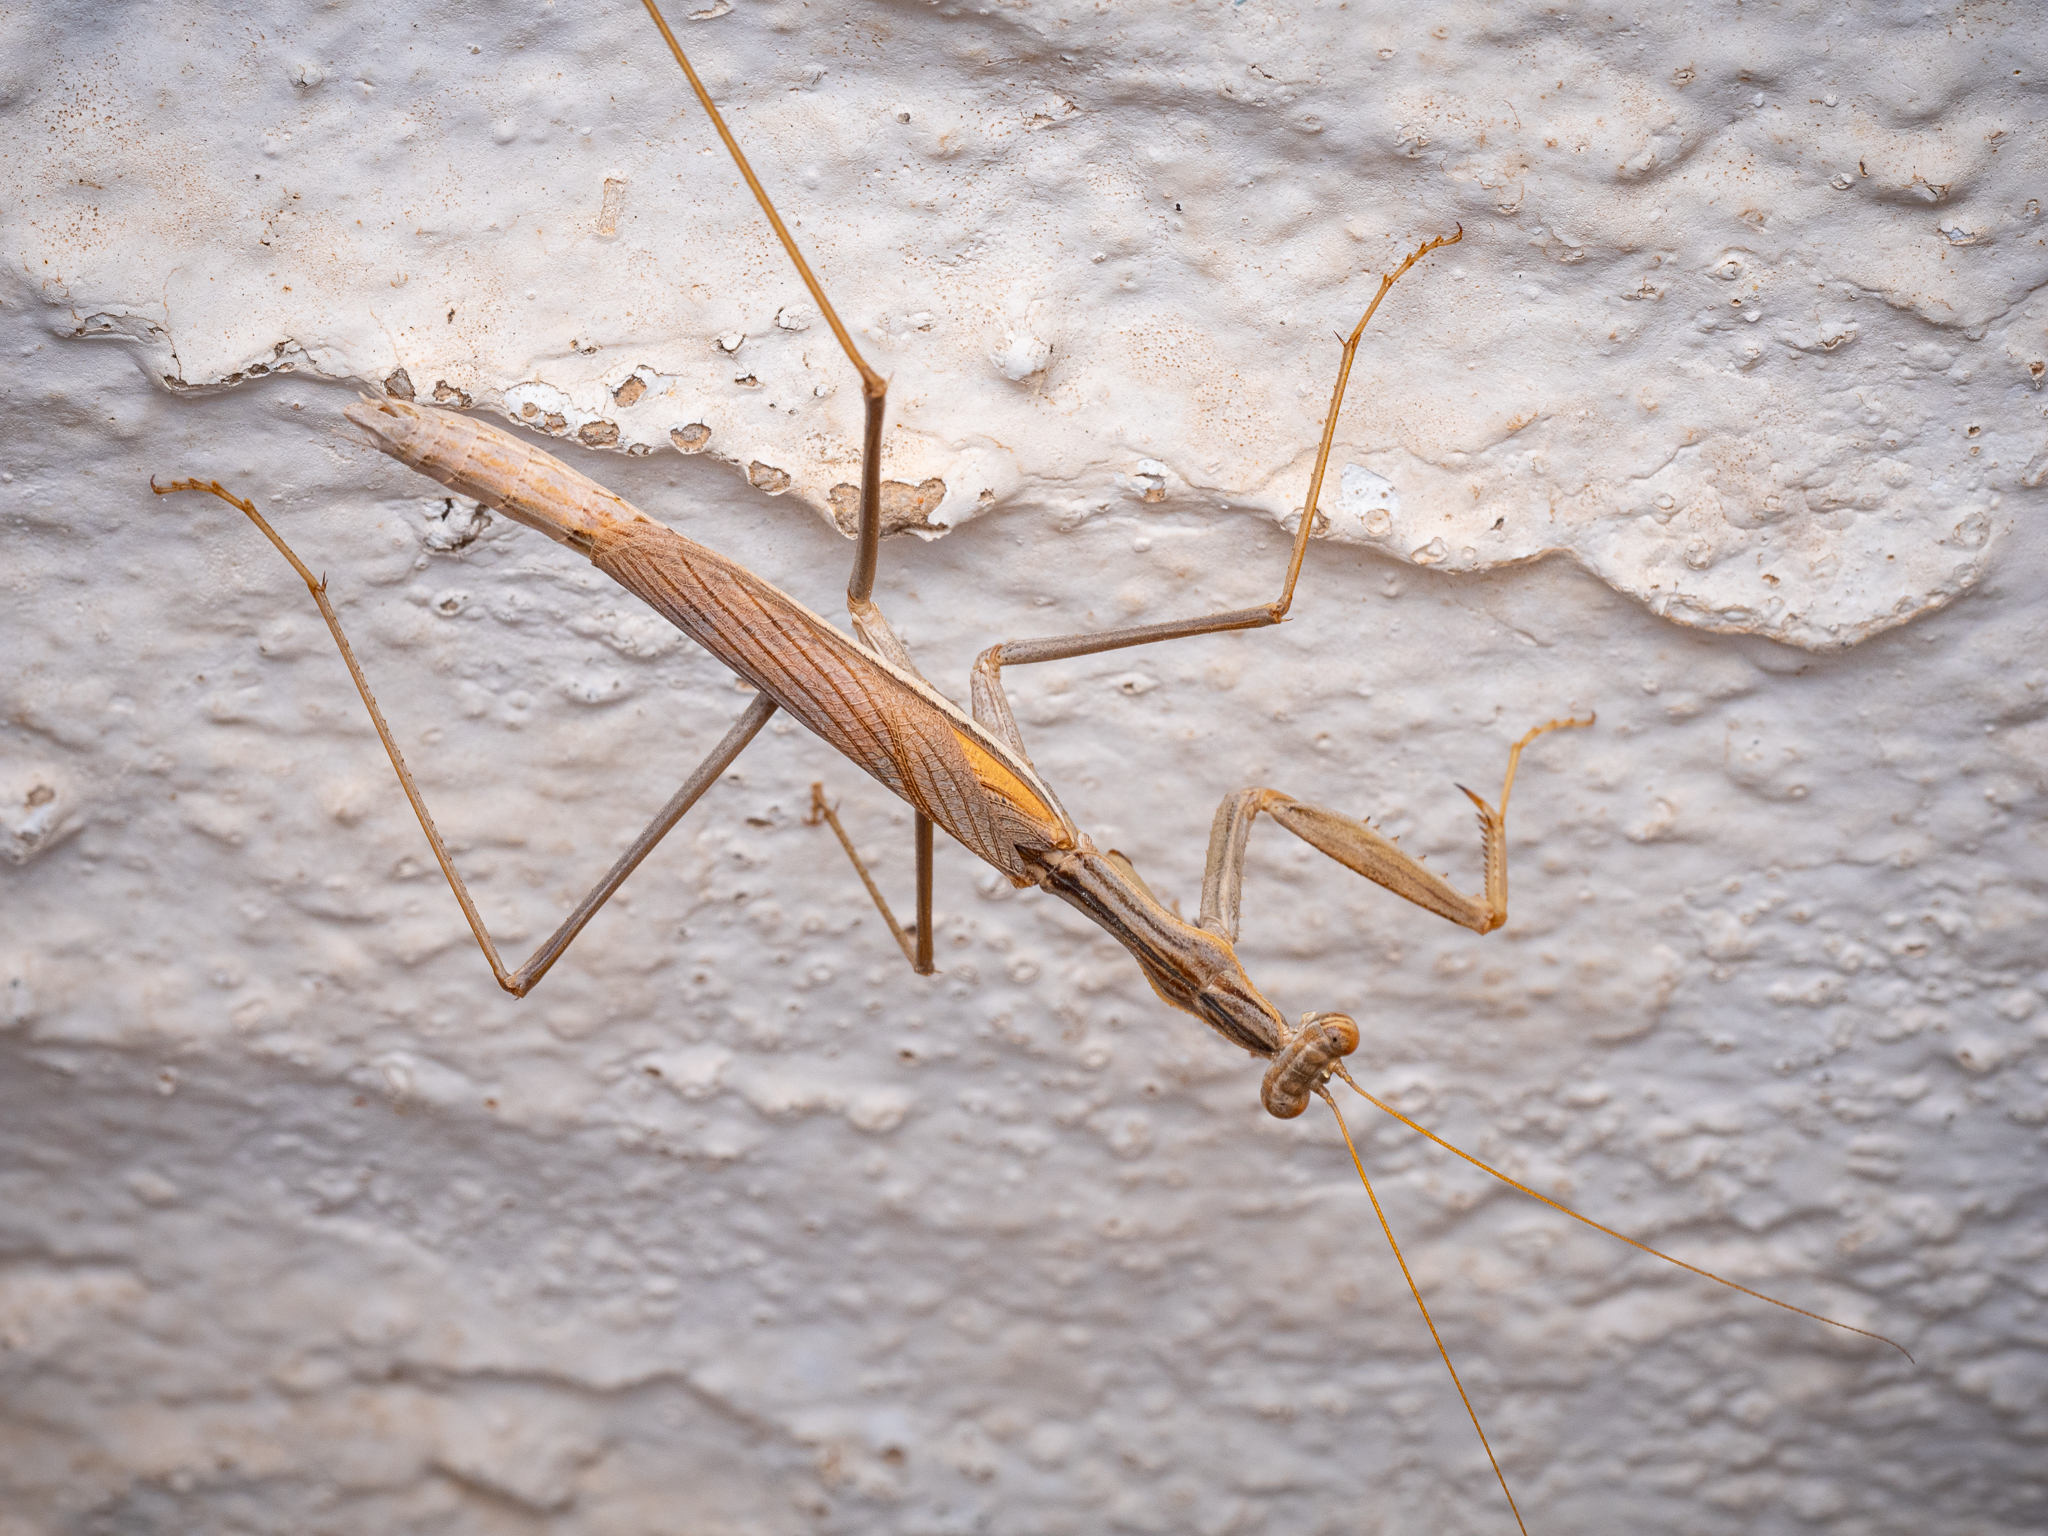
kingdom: Animalia
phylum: Arthropoda
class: Insecta
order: Mantodea
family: Rivetinidae
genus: Rivetina
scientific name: Rivetina balcanica
